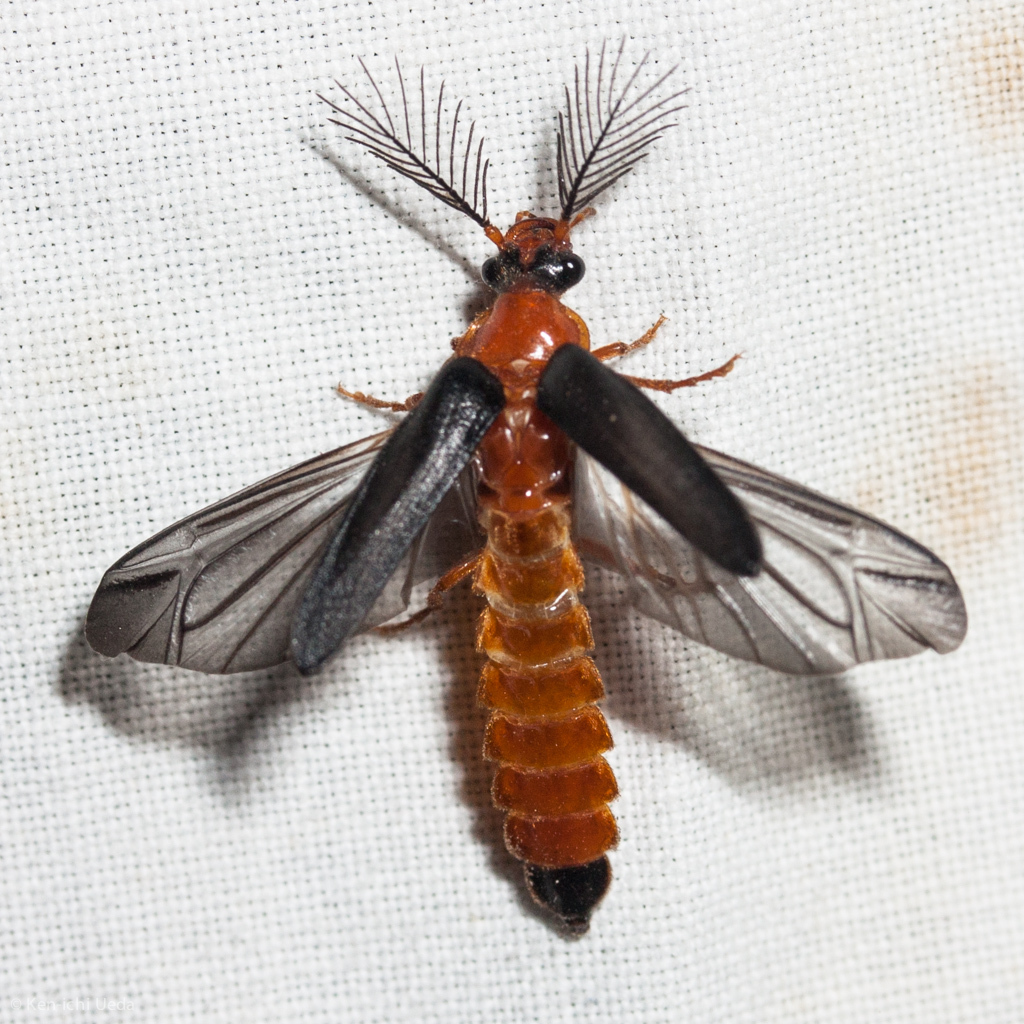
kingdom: Animalia
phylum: Arthropoda
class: Insecta
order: Coleoptera
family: Phengodidae
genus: Zarhipis
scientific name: Zarhipis integripennis
